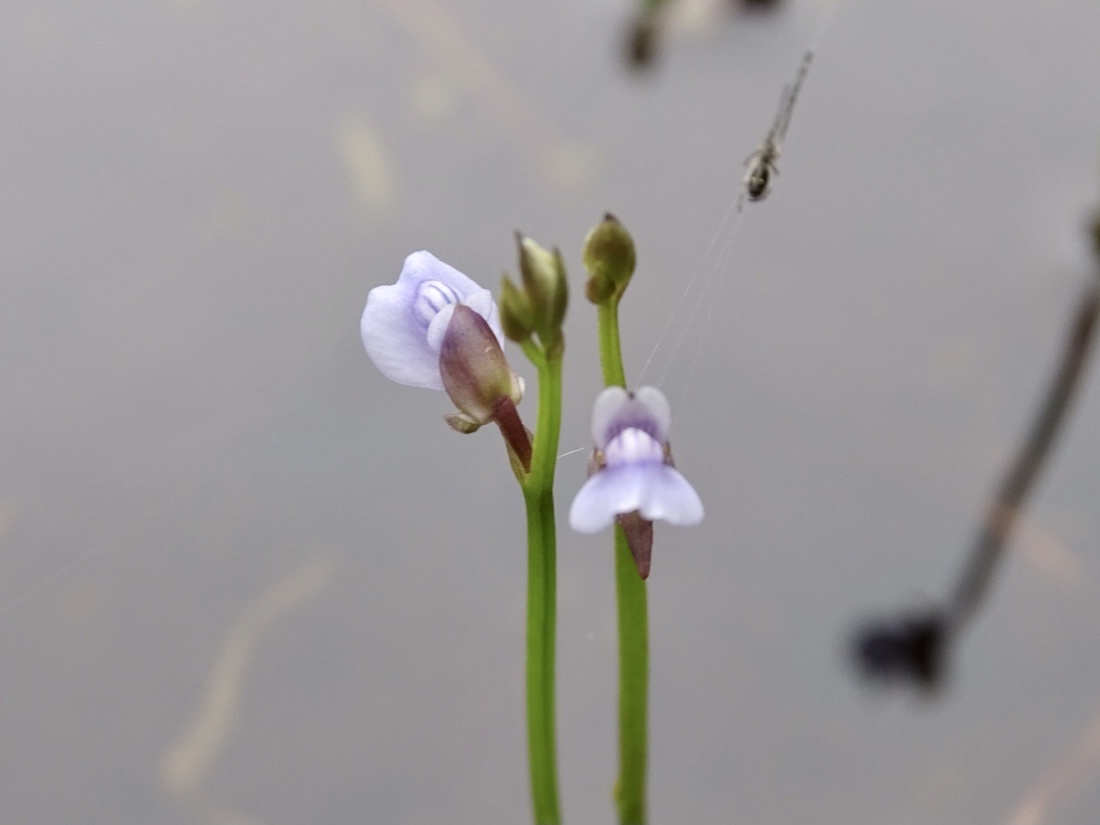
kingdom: Plantae
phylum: Tracheophyta
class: Magnoliopsida
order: Lamiales
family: Lentibulariaceae
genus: Utricularia
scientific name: Utricularia uliginosa
